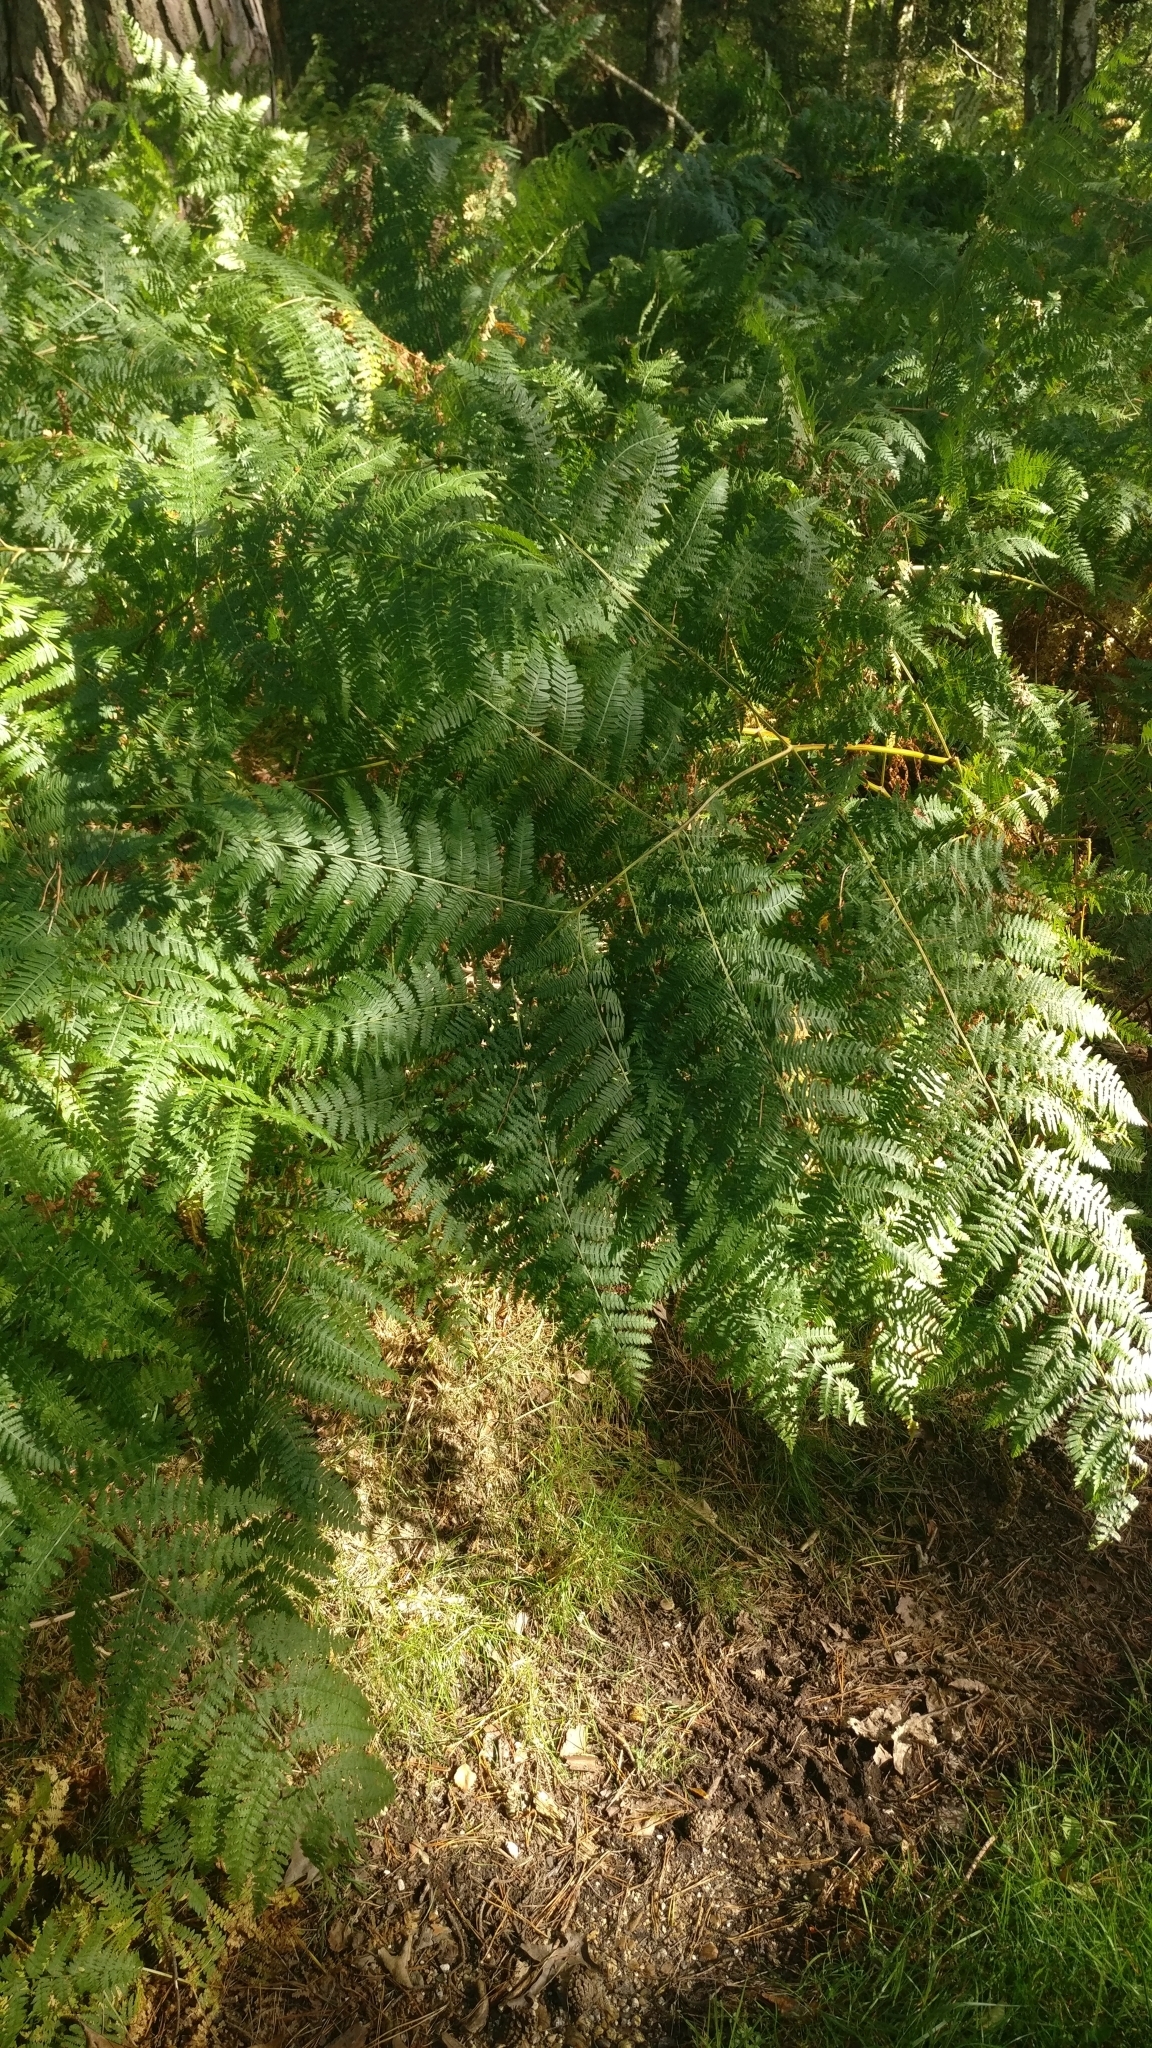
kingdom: Plantae
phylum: Tracheophyta
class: Polypodiopsida
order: Polypodiales
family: Dennstaedtiaceae
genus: Pteridium
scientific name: Pteridium aquilinum
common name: Bracken
